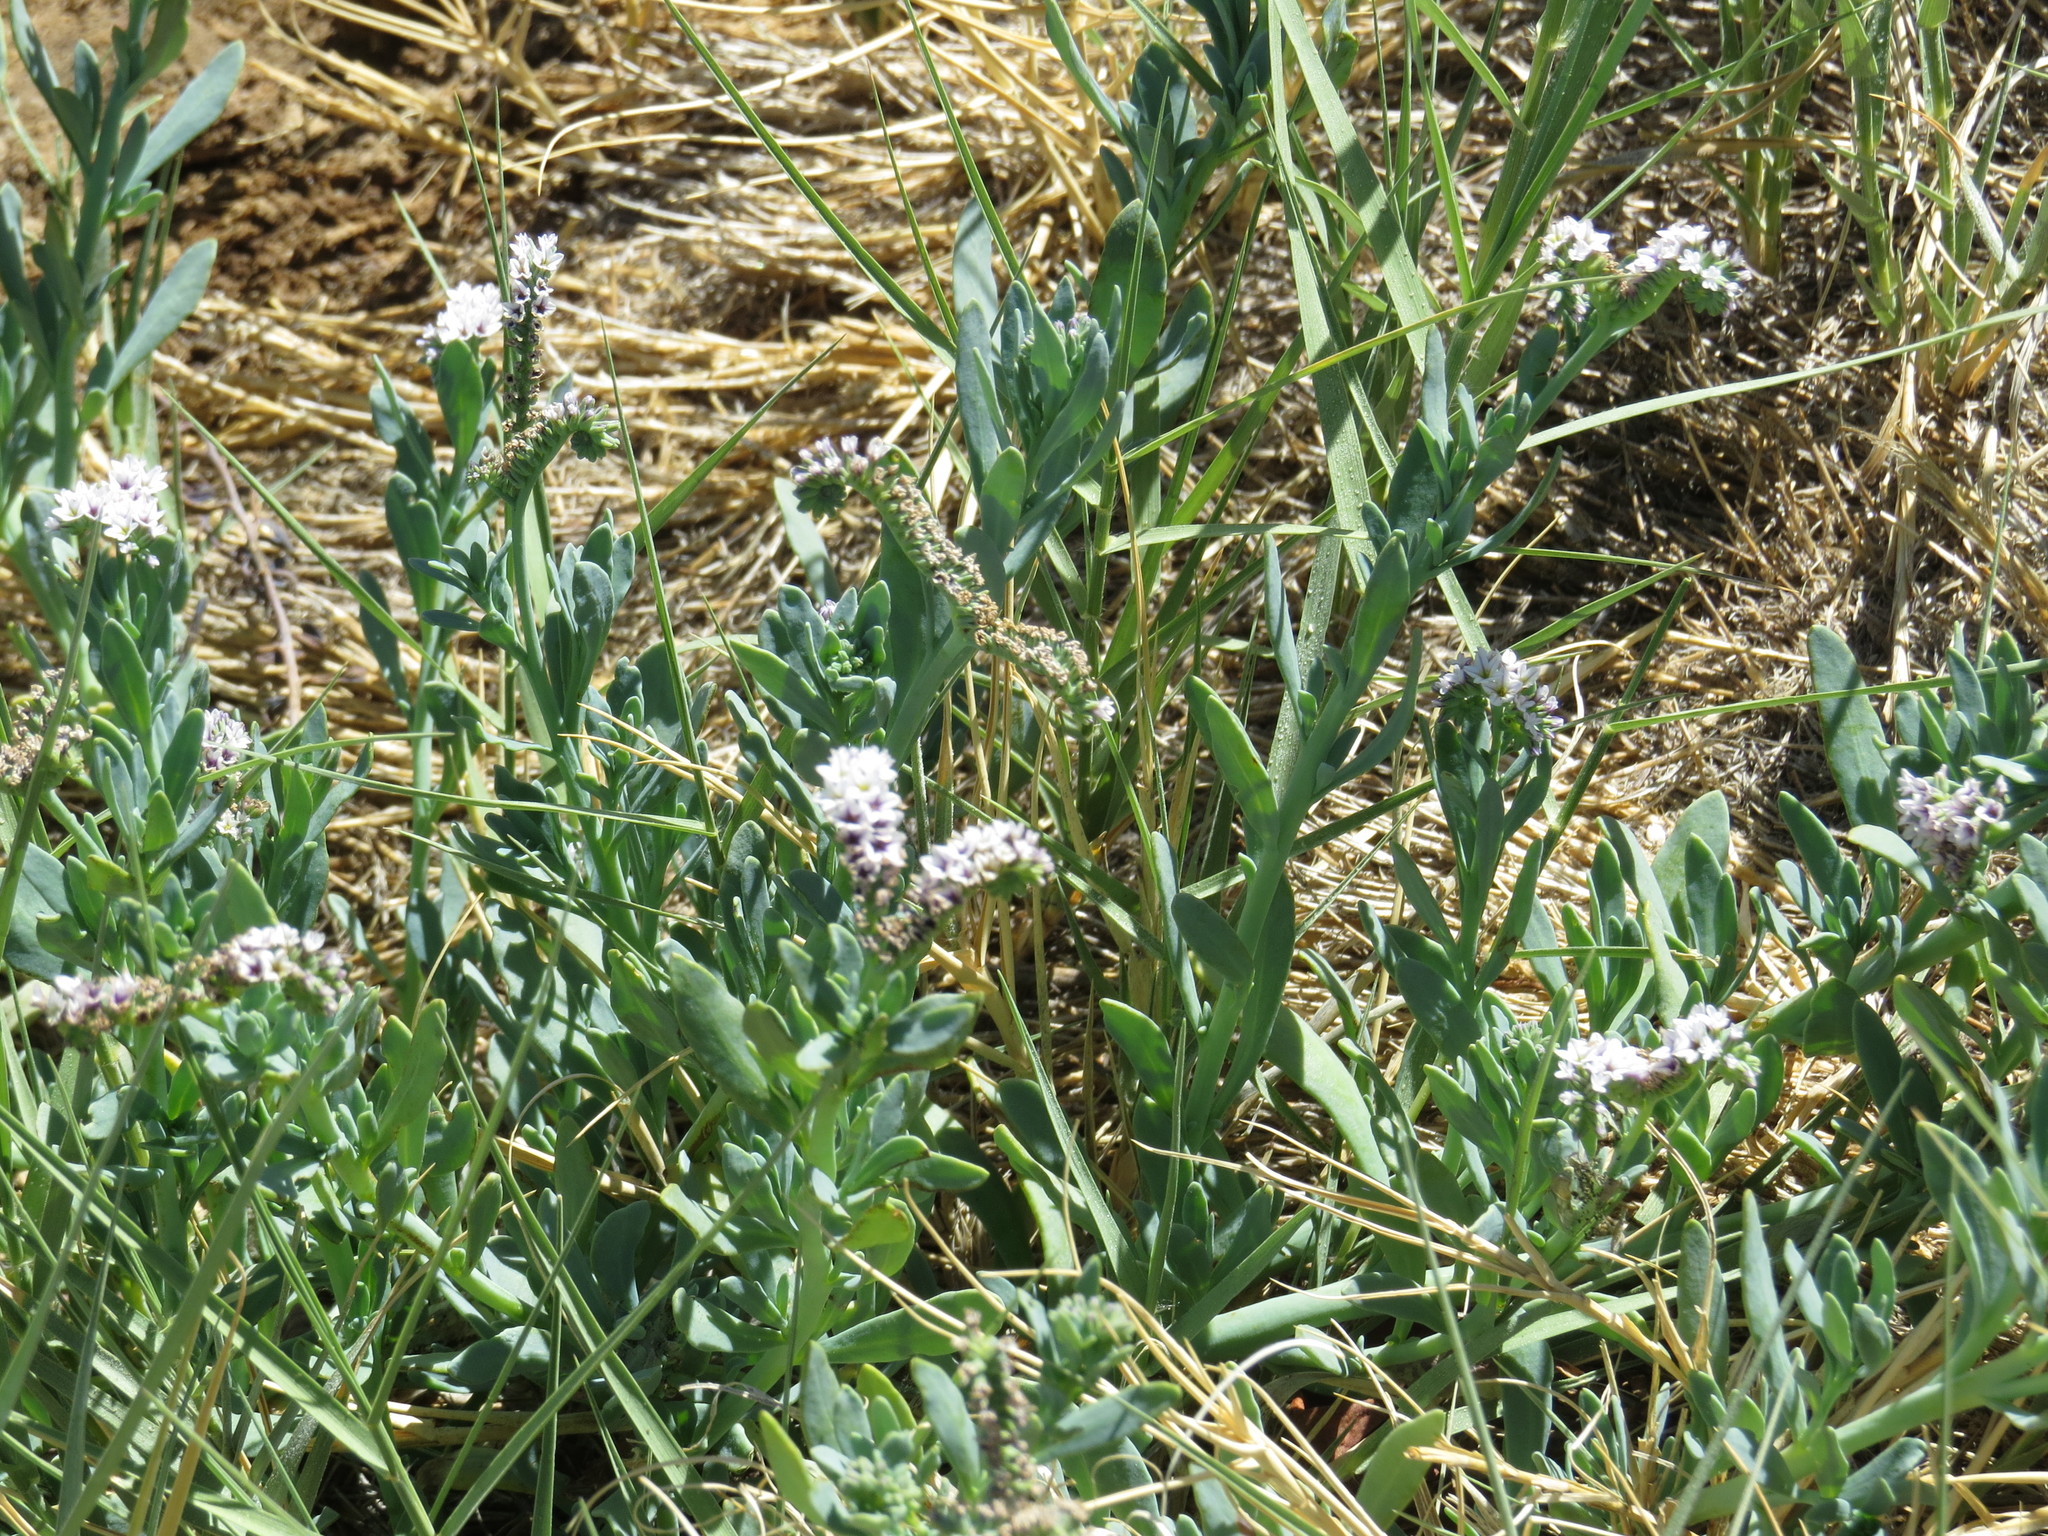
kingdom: Plantae
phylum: Tracheophyta
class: Magnoliopsida
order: Boraginales
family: Heliotropiaceae
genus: Heliotropium
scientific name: Heliotropium curassavicum
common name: Seaside heliotrope
